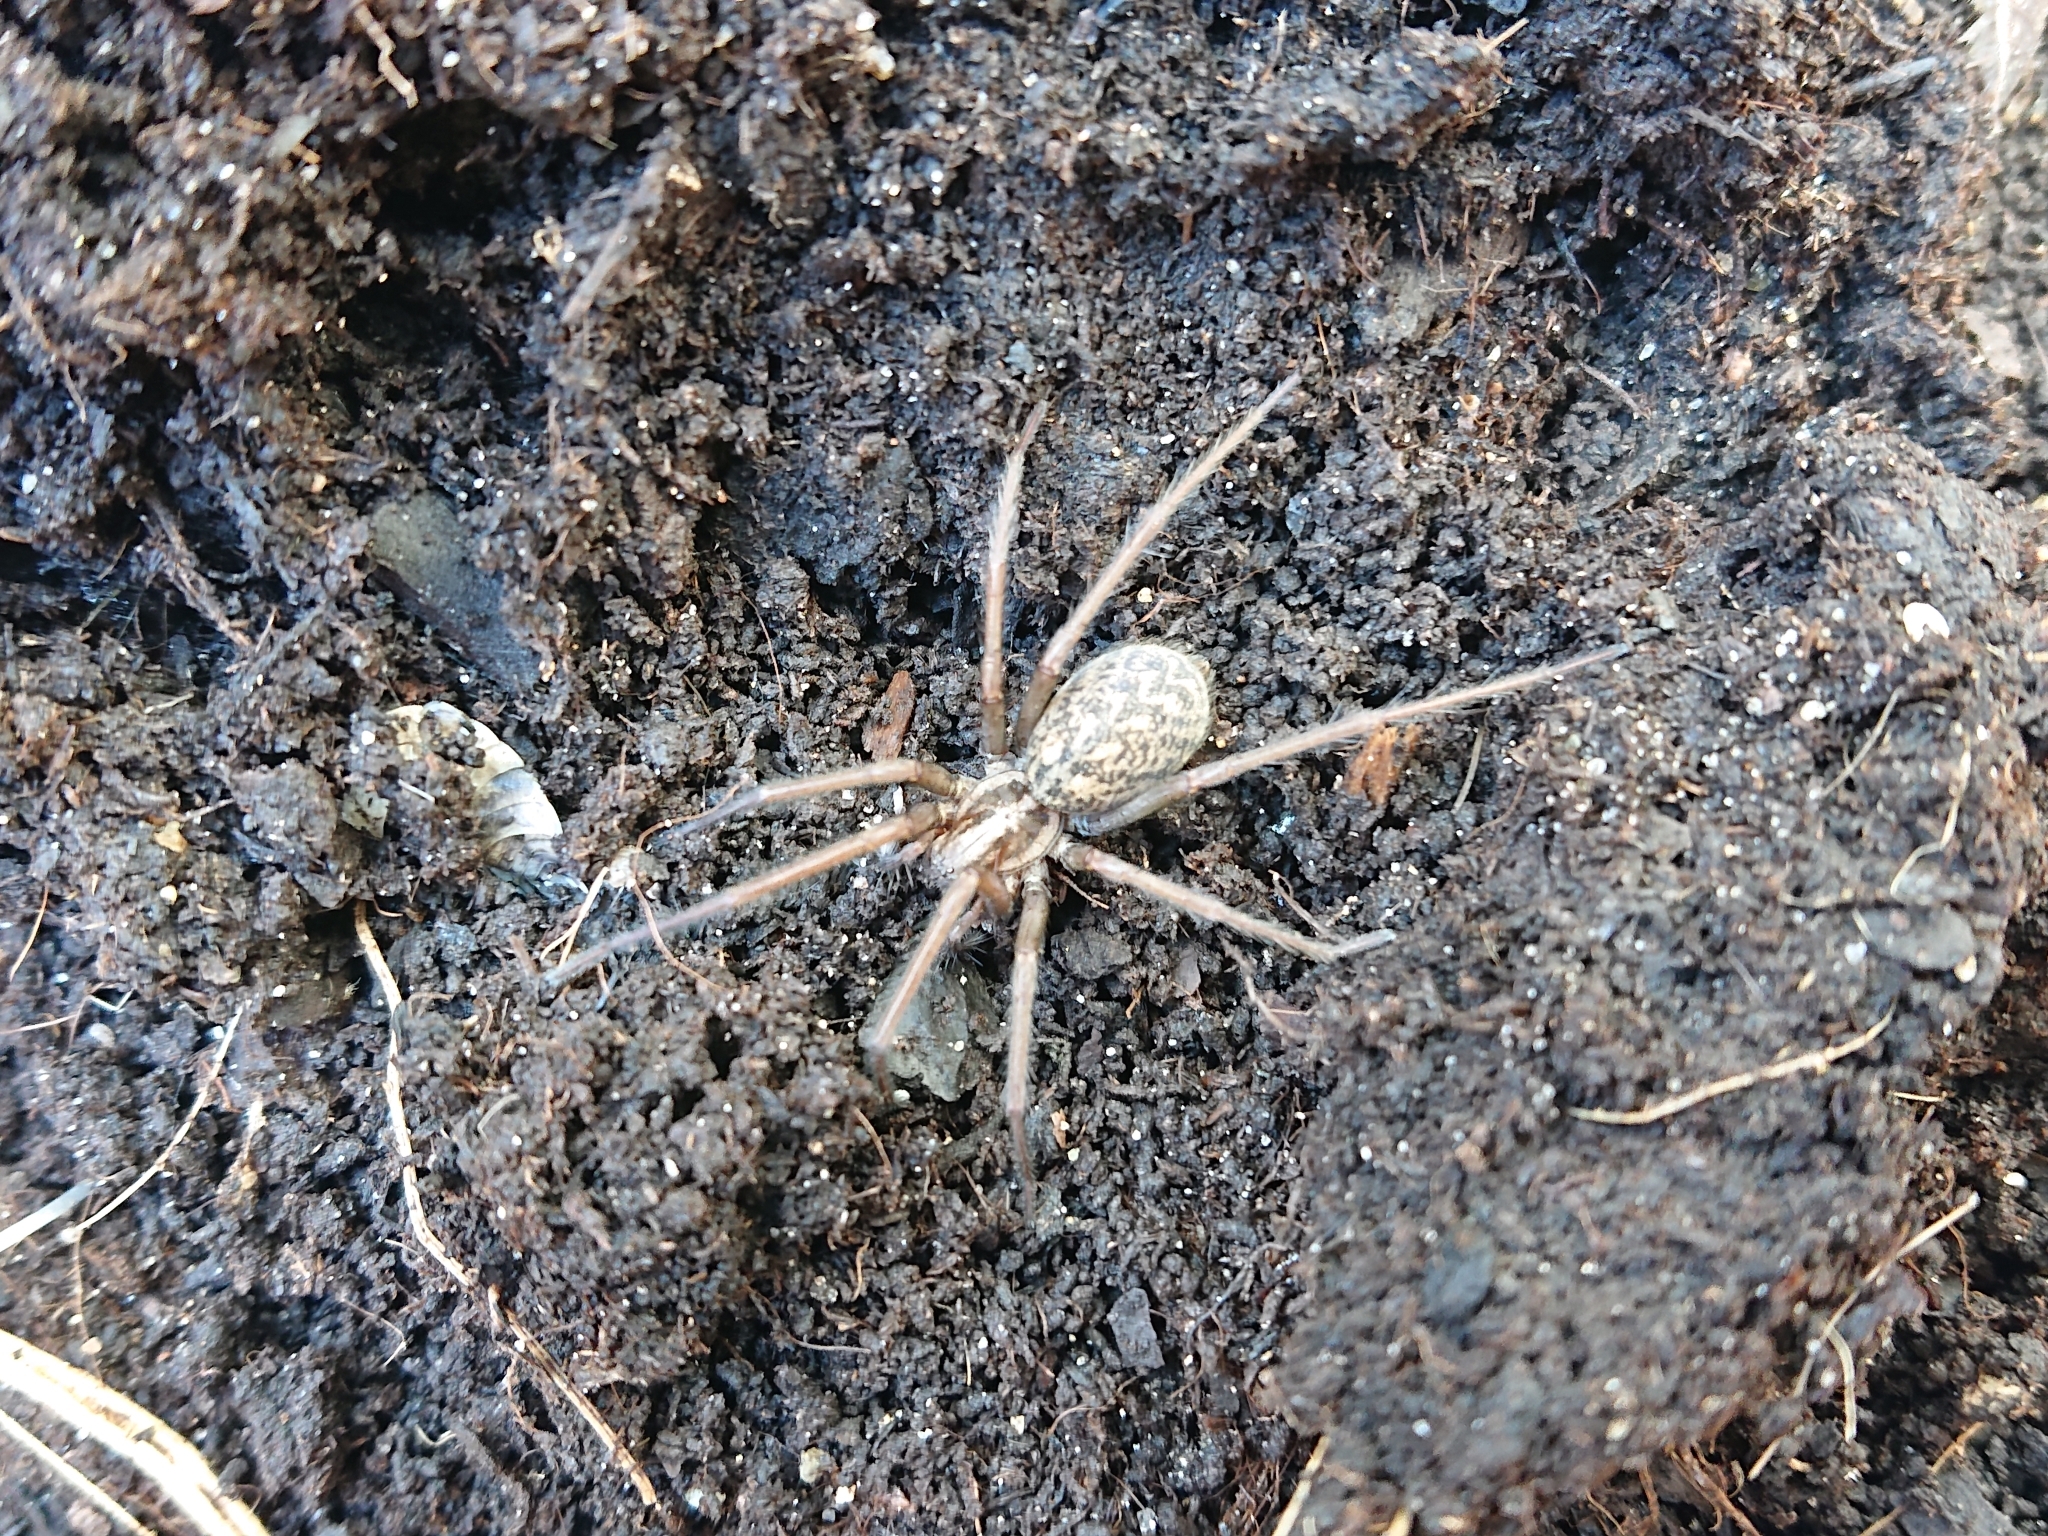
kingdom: Animalia
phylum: Arthropoda
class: Arachnida
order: Araneae
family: Agelenidae
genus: Eratigena
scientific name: Eratigena atrica
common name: Giant house spider
